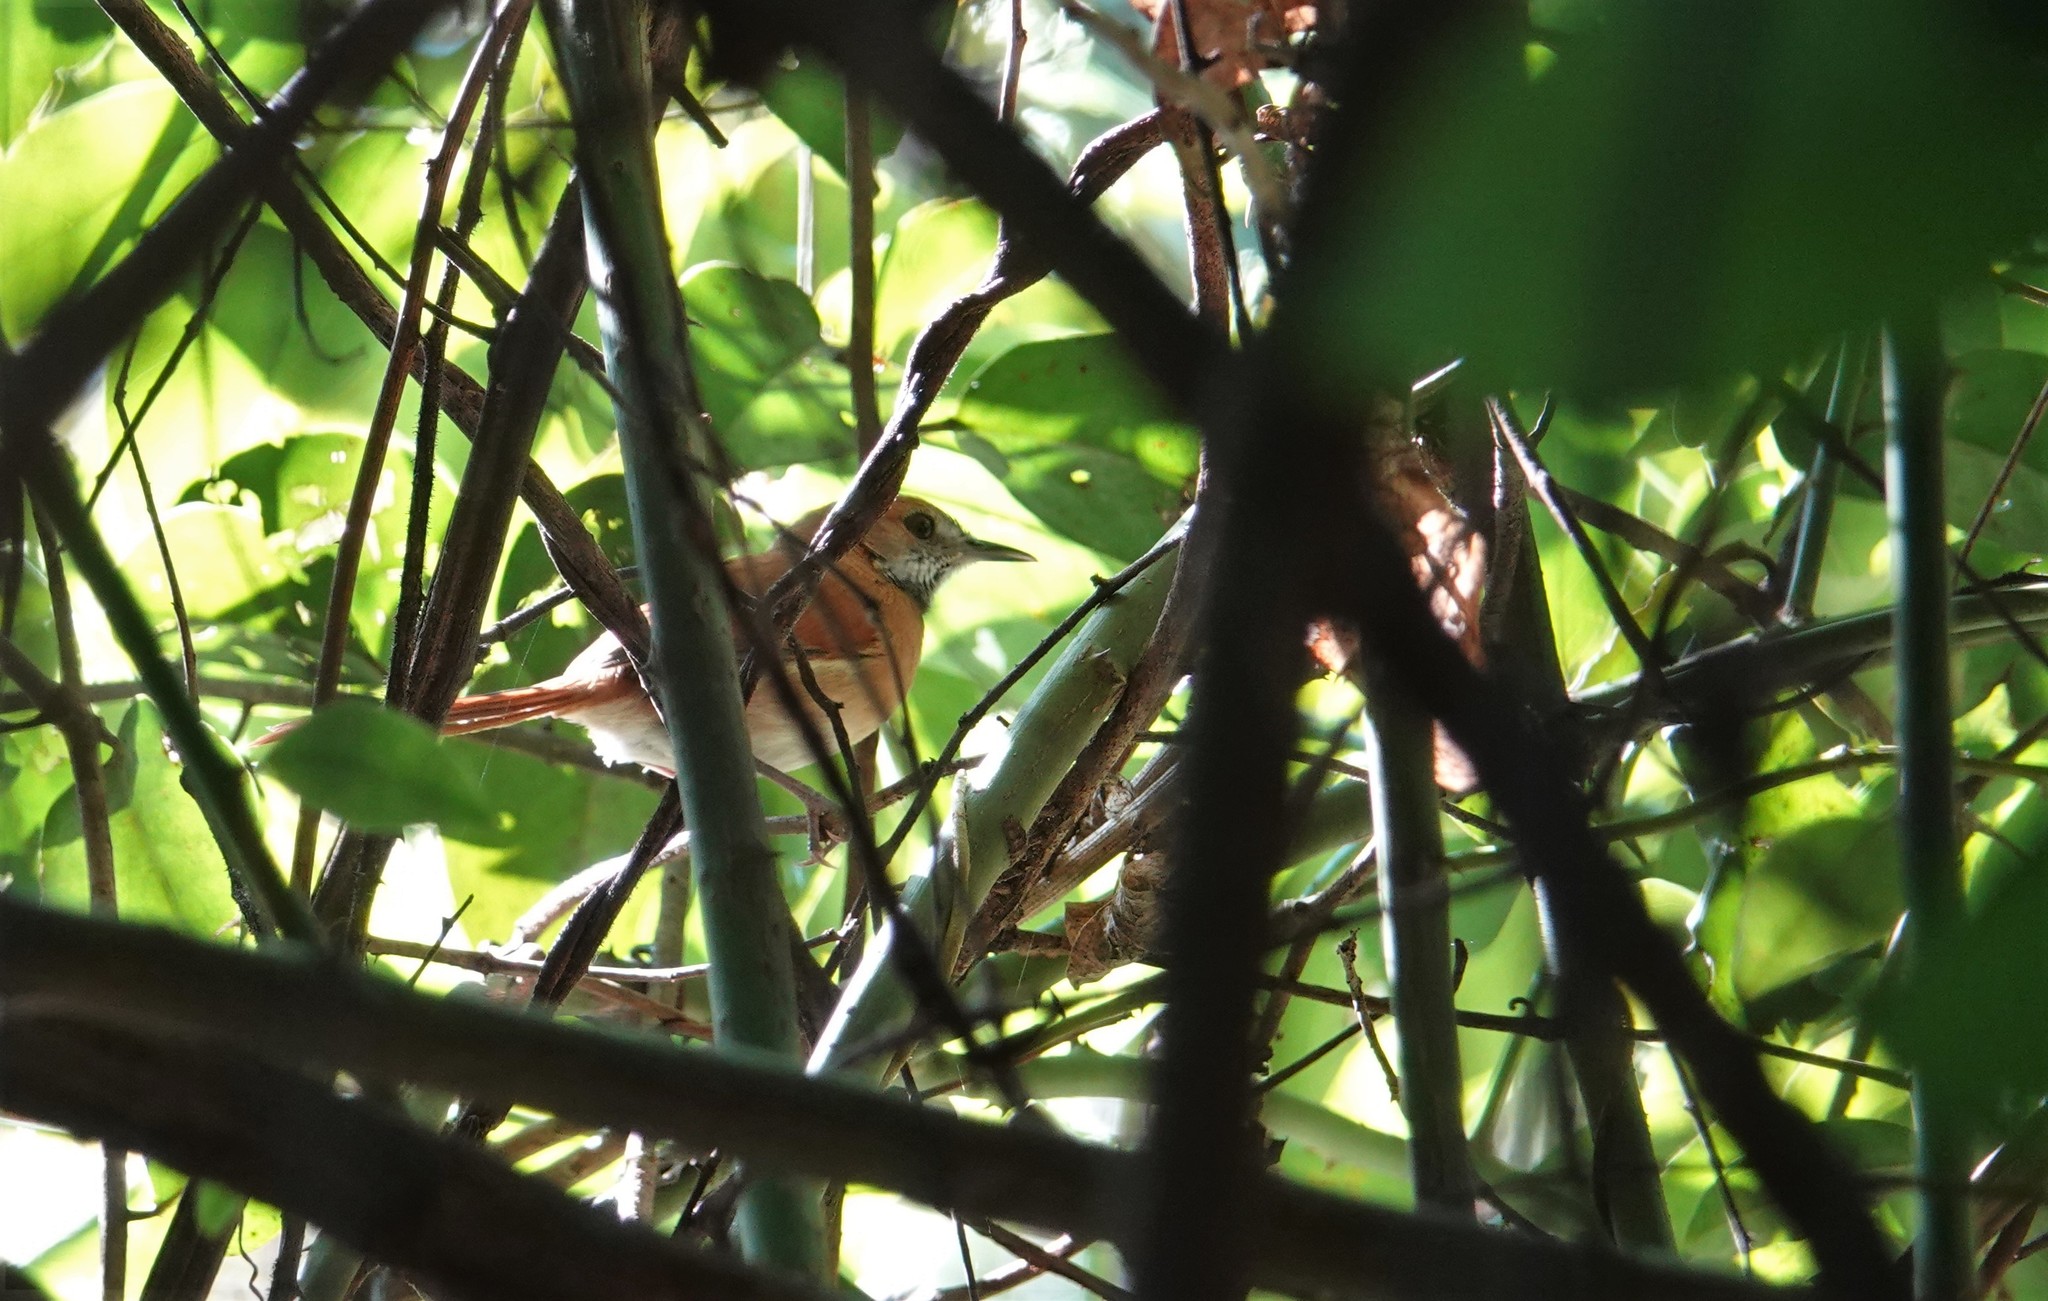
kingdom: Animalia
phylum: Chordata
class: Aves
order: Passeriformes
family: Furnariidae
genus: Synallaxis
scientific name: Synallaxis kollari
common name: Hoary-throated spinetail
